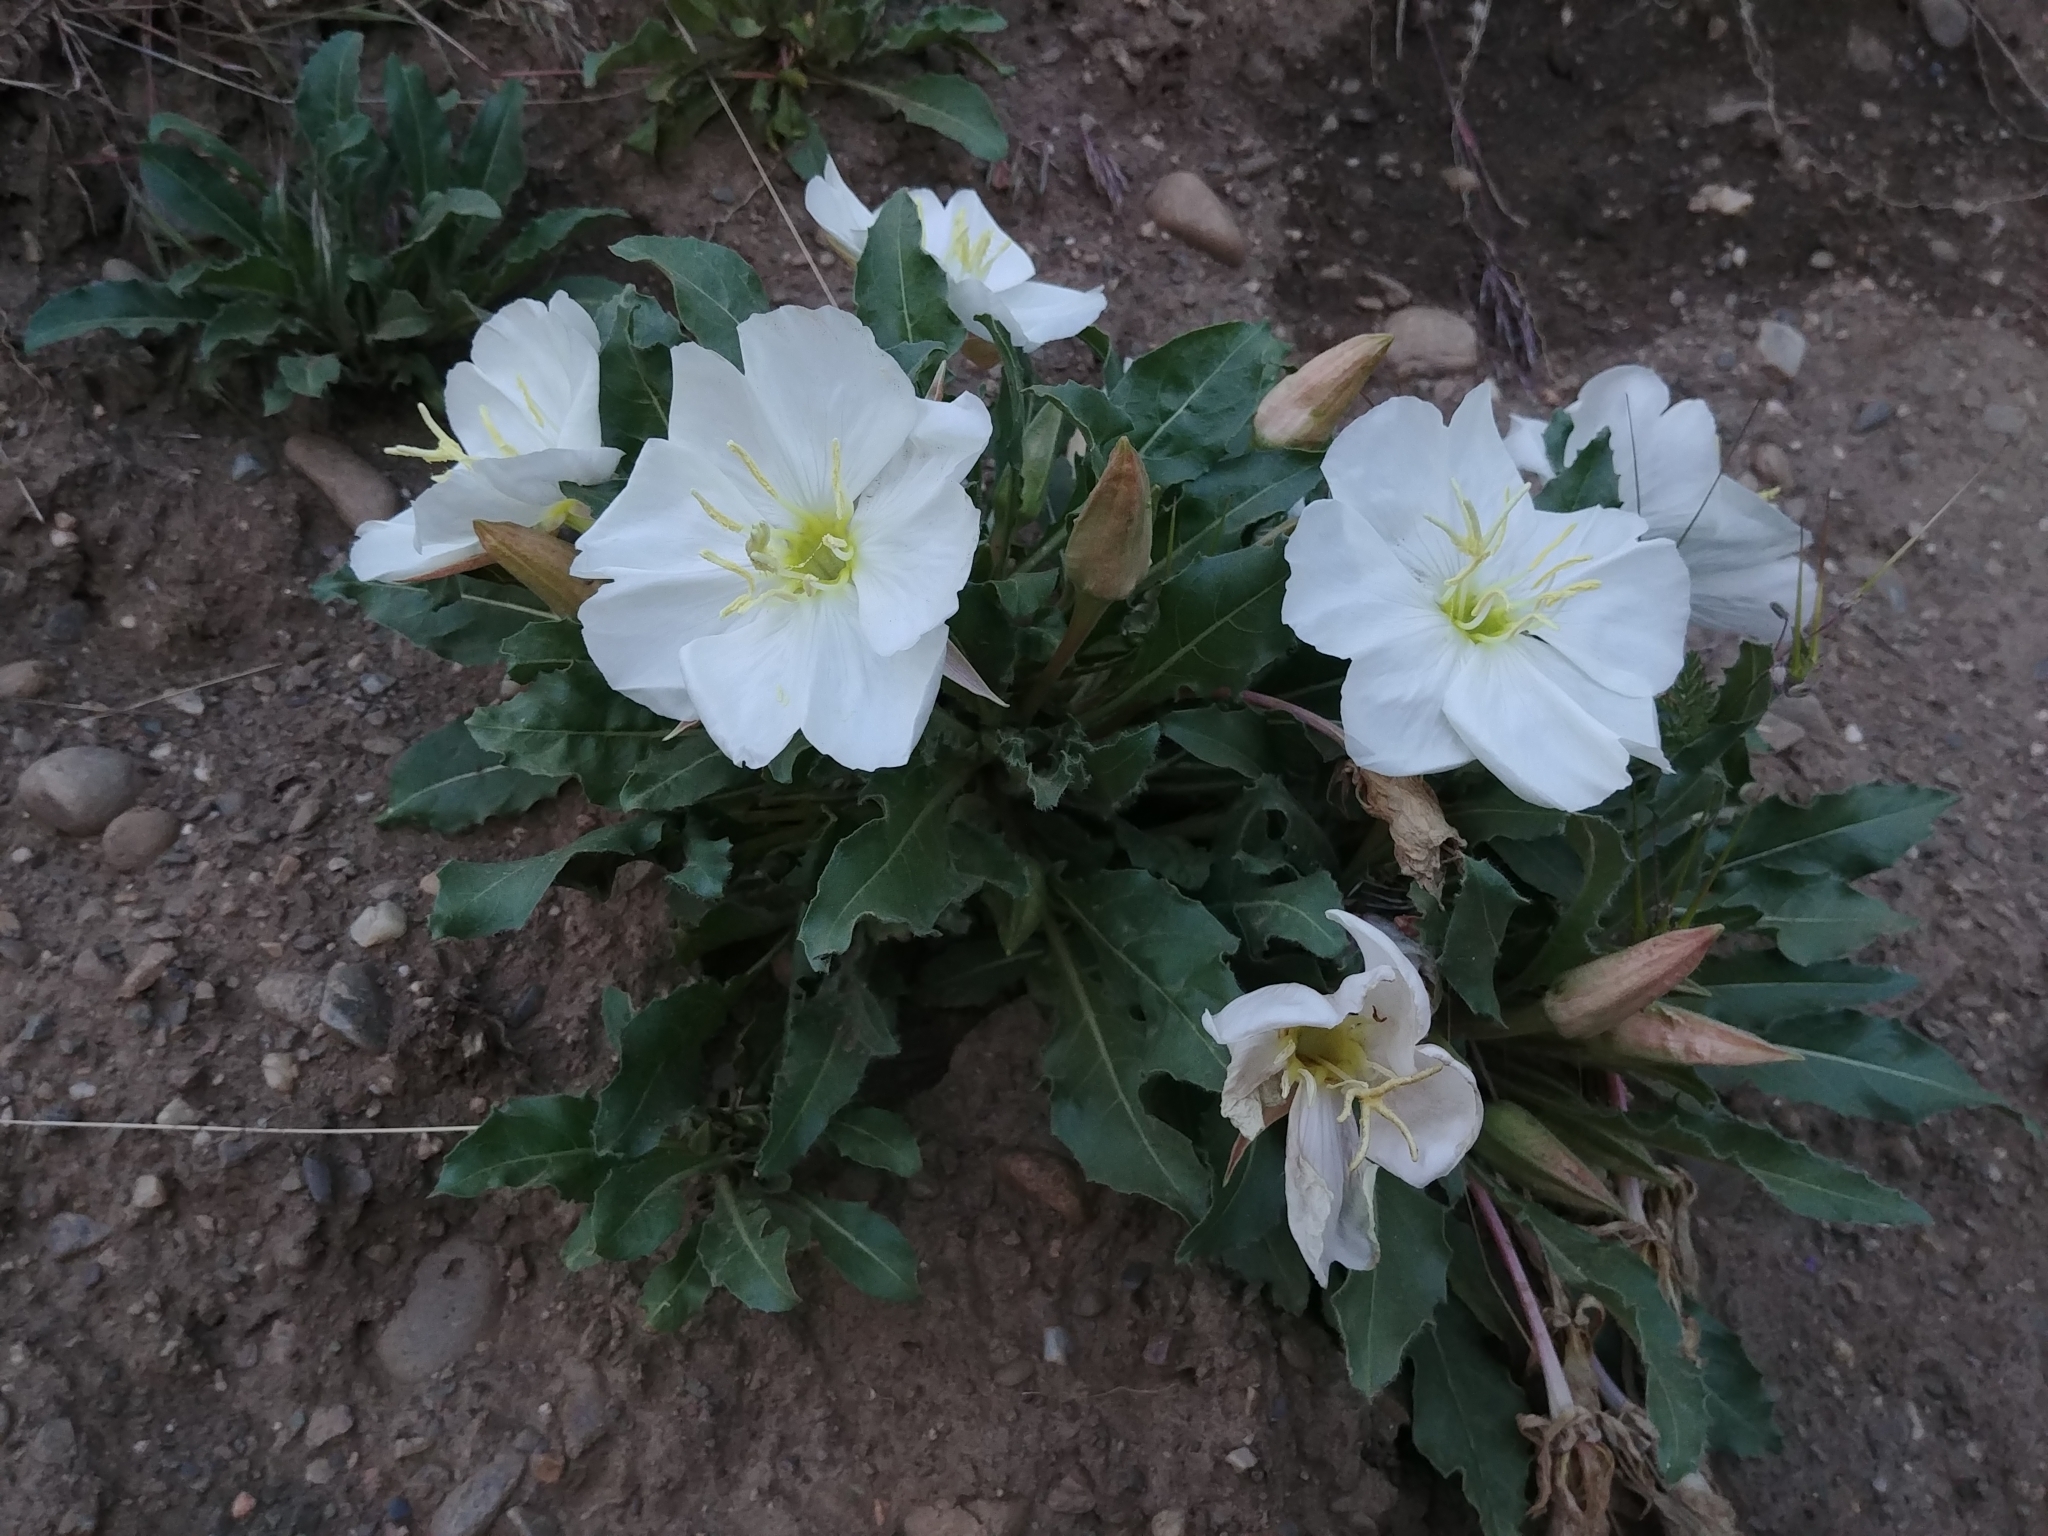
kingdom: Plantae
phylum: Tracheophyta
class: Magnoliopsida
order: Myrtales
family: Onagraceae
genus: Oenothera
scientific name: Oenothera cespitosa
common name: Tufted evening-primrose
